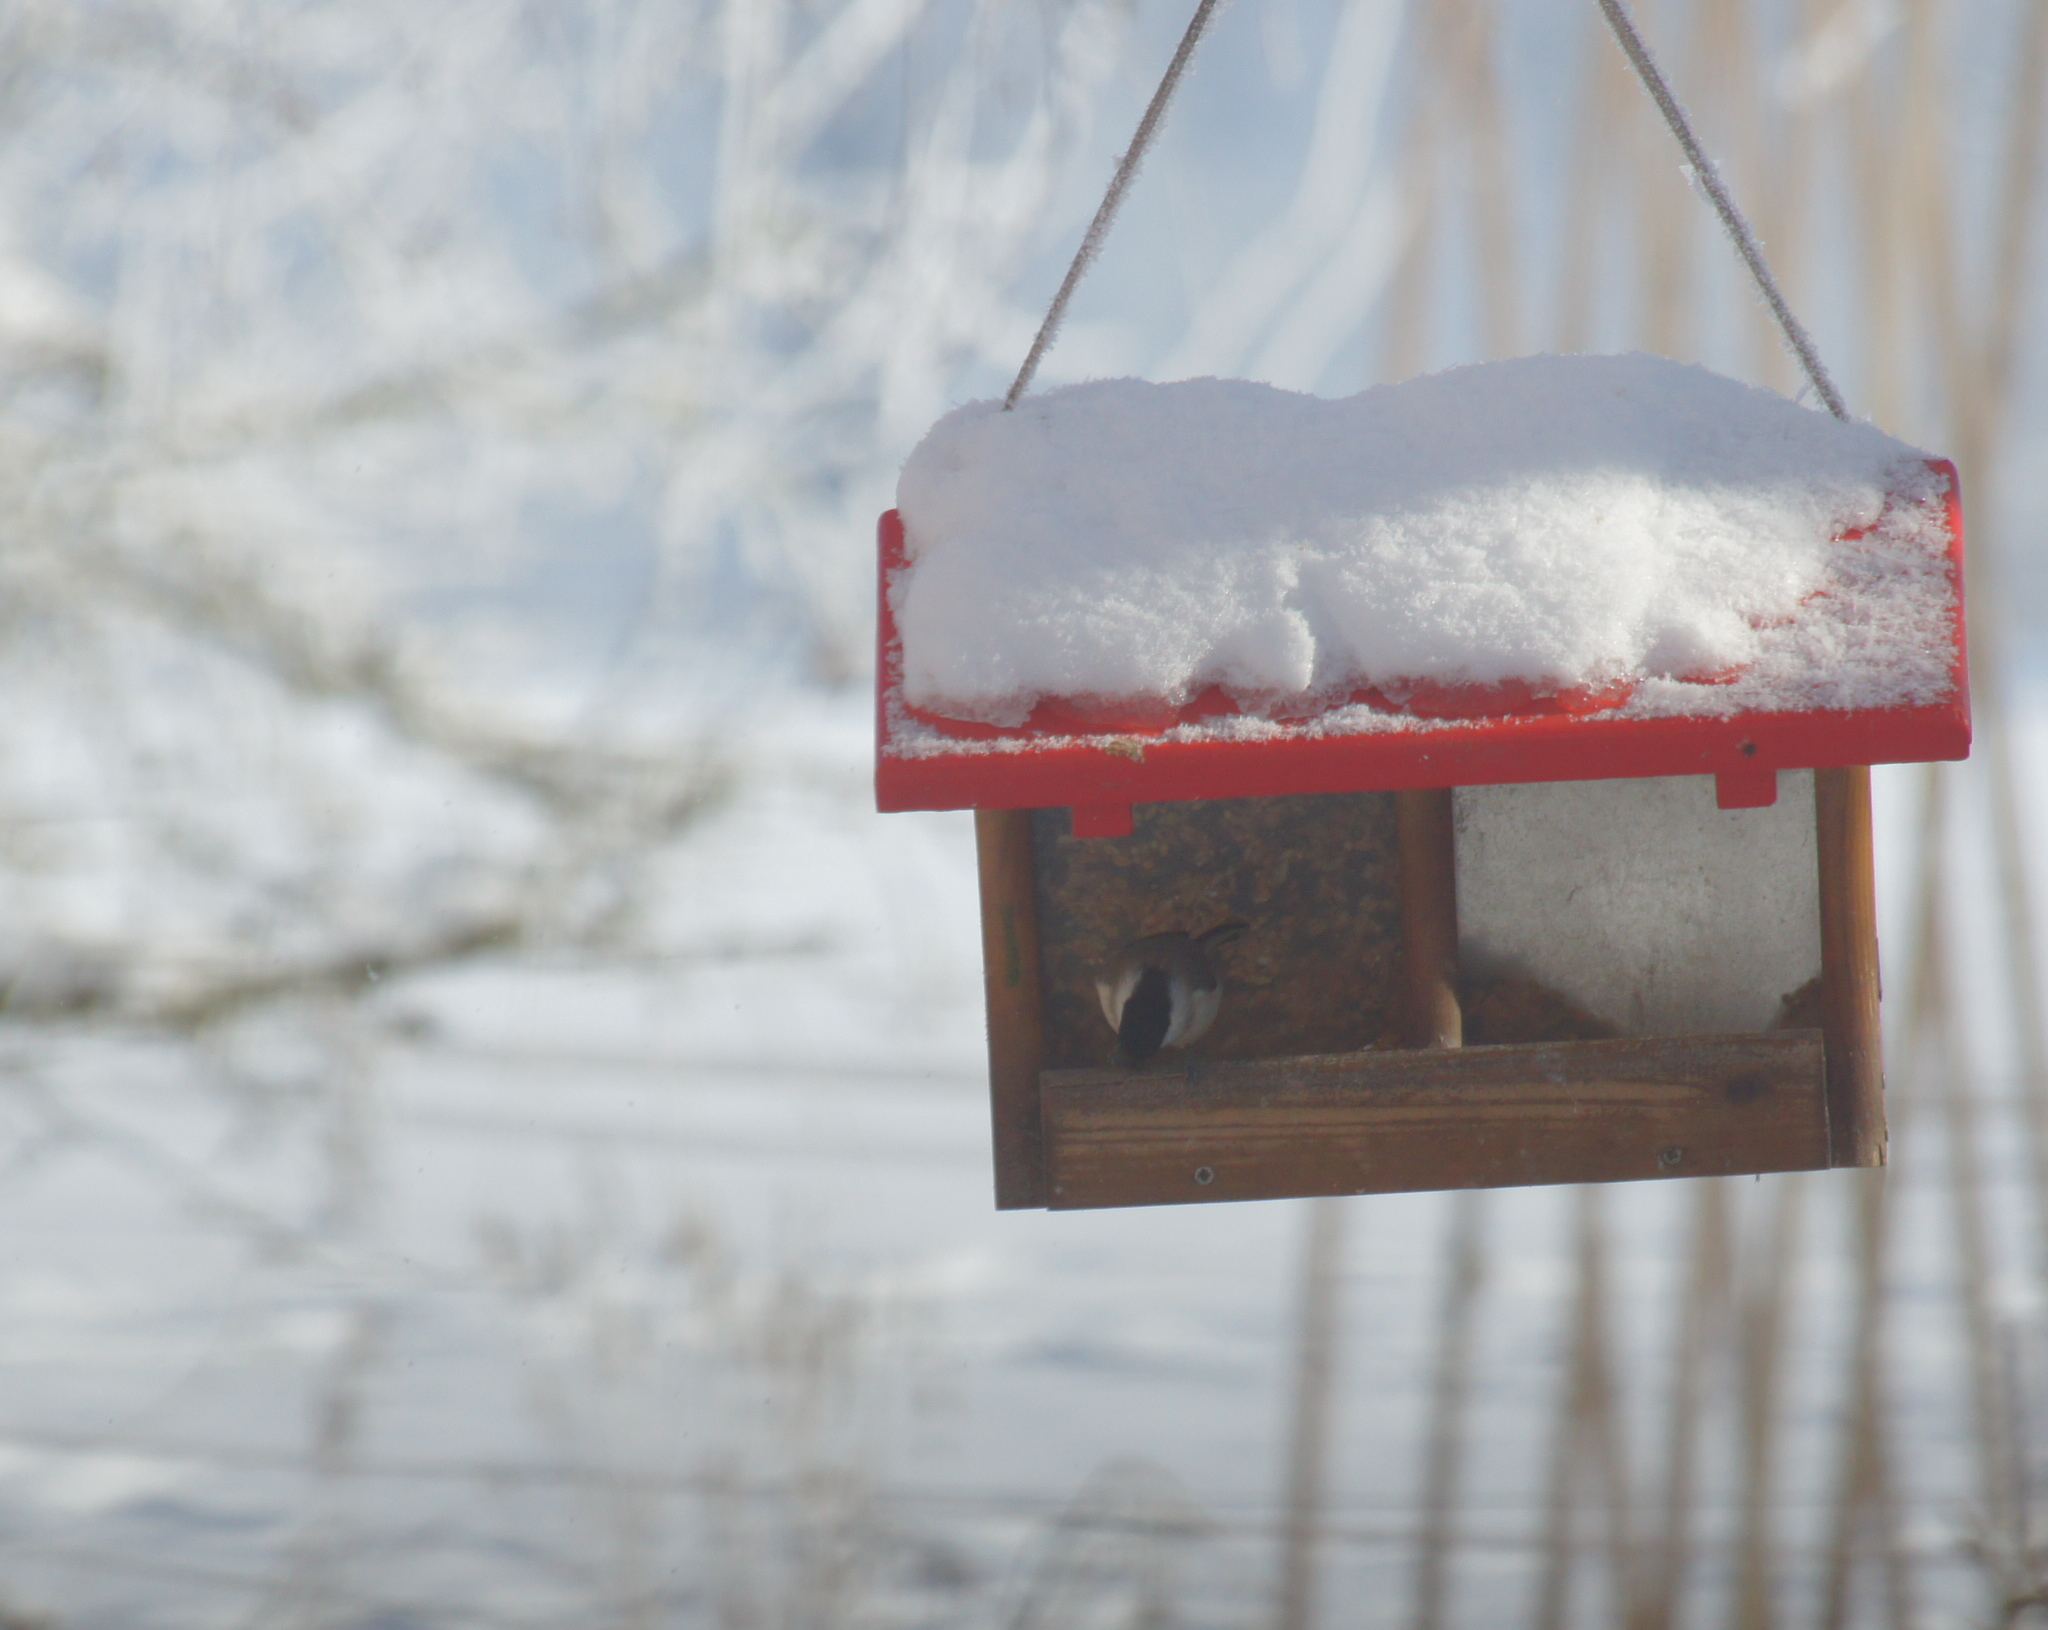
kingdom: Animalia
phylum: Chordata
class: Aves
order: Passeriformes
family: Paridae
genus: Poecile
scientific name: Poecile palustris
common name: Marsh tit
